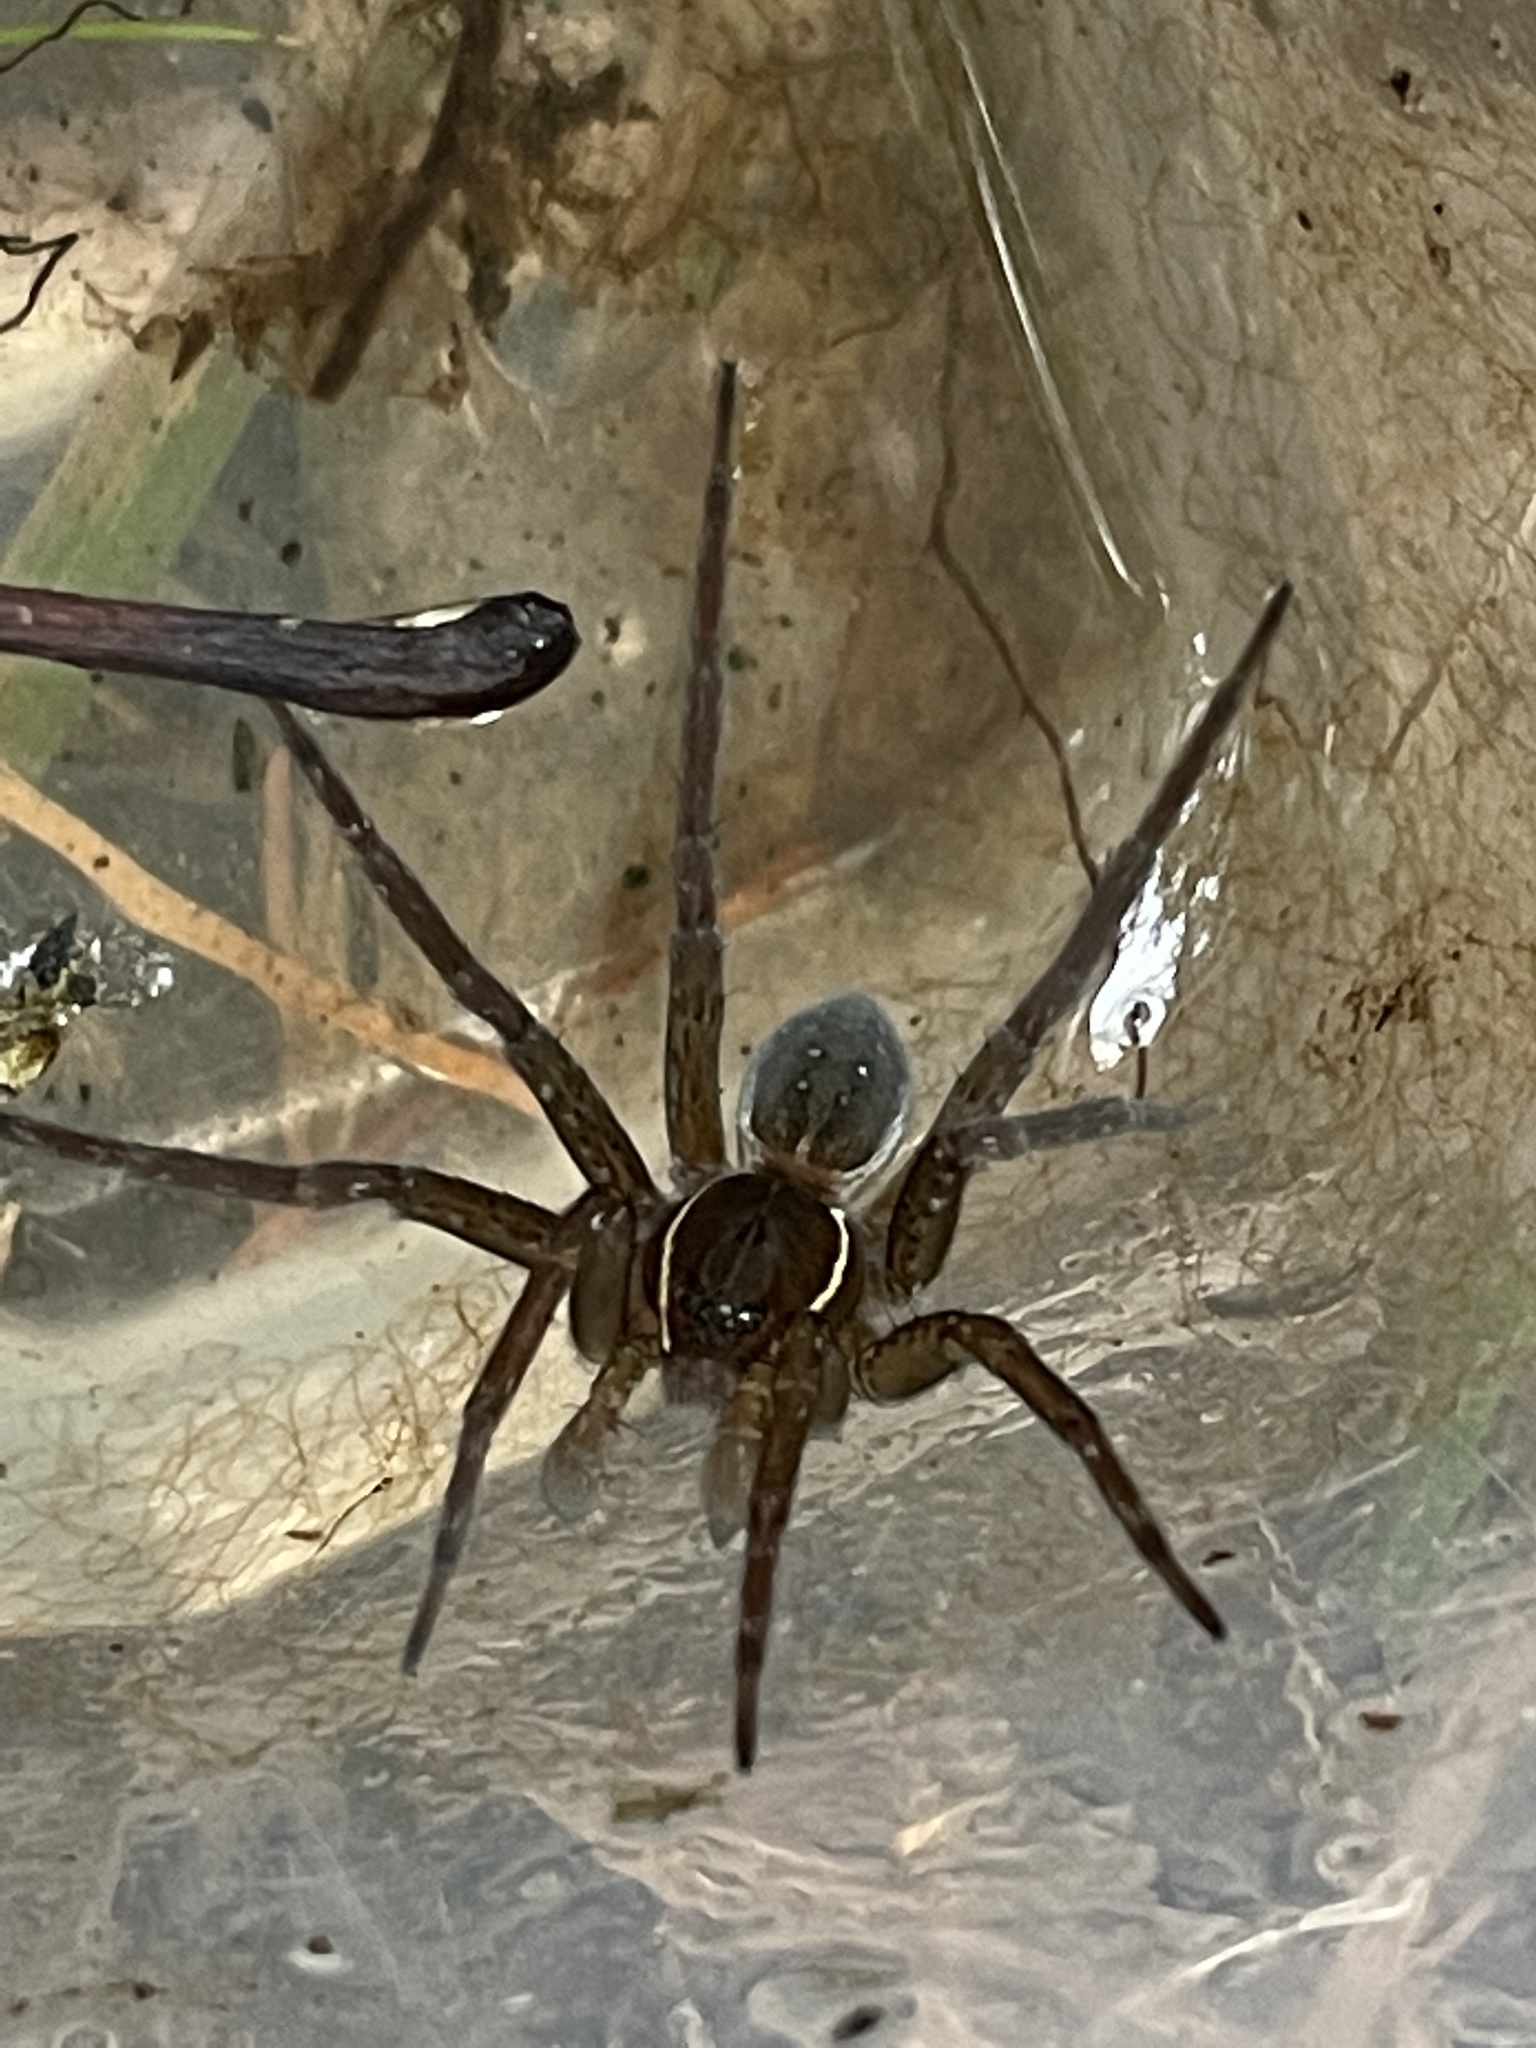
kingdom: Animalia
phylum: Arthropoda
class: Arachnida
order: Araneae
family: Pisauridae
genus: Dolomedes
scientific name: Dolomedes triton
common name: Six-spotted fishing spider
